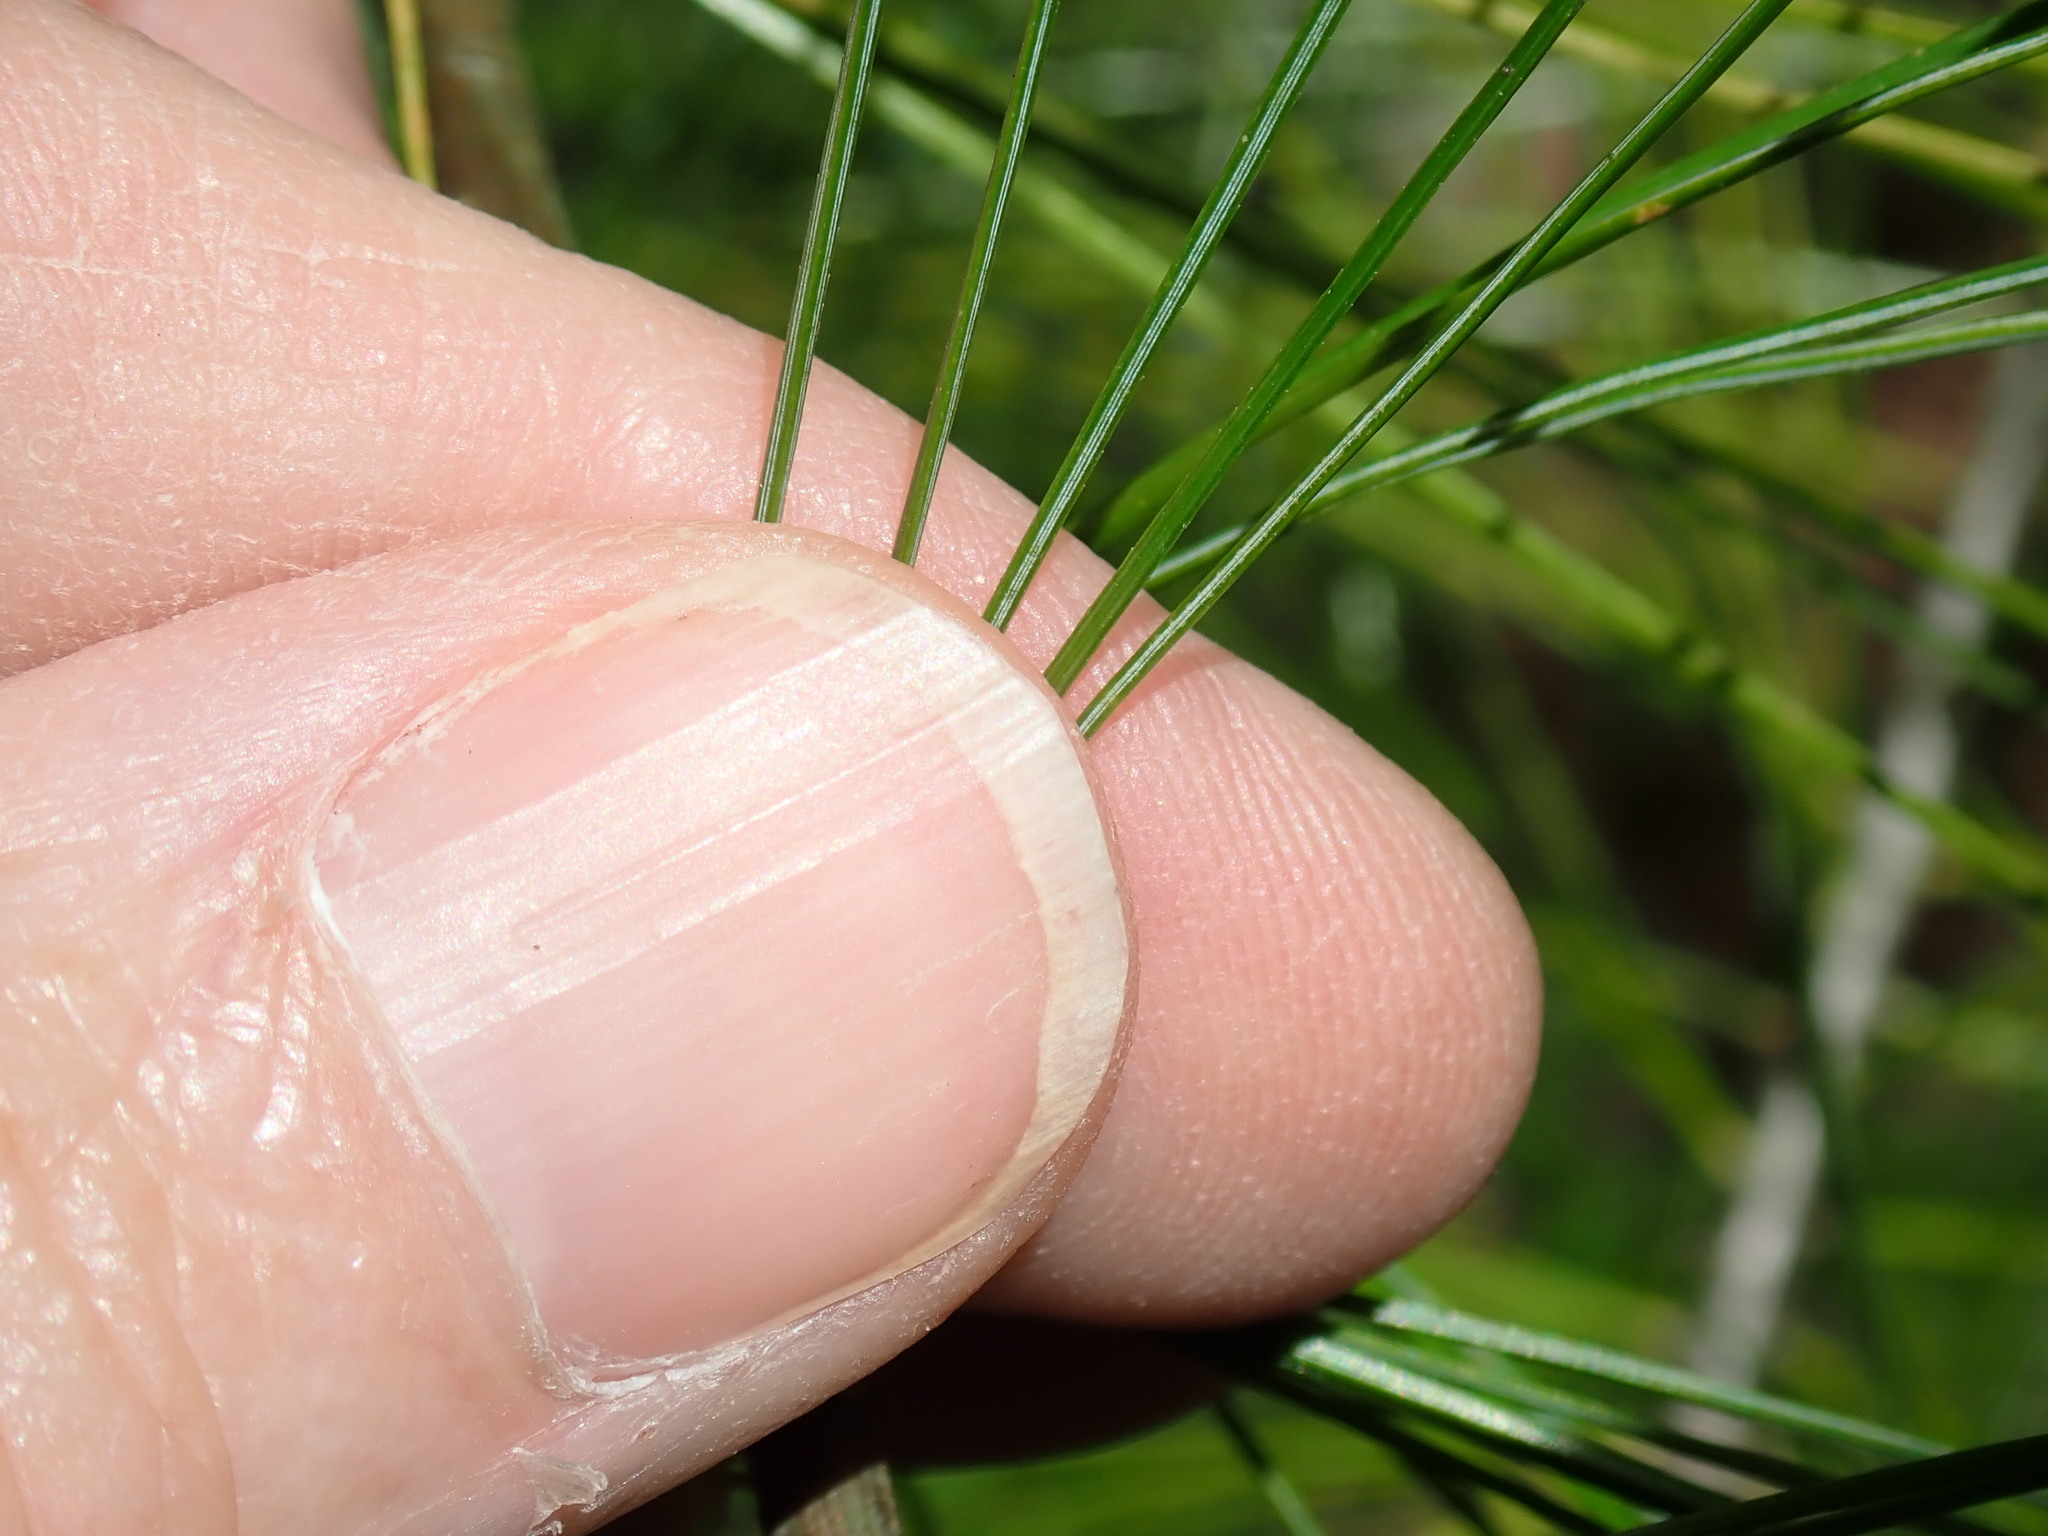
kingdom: Plantae
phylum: Tracheophyta
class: Pinopsida
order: Pinales
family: Pinaceae
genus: Pinus
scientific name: Pinus strobus
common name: Weymouth pine
